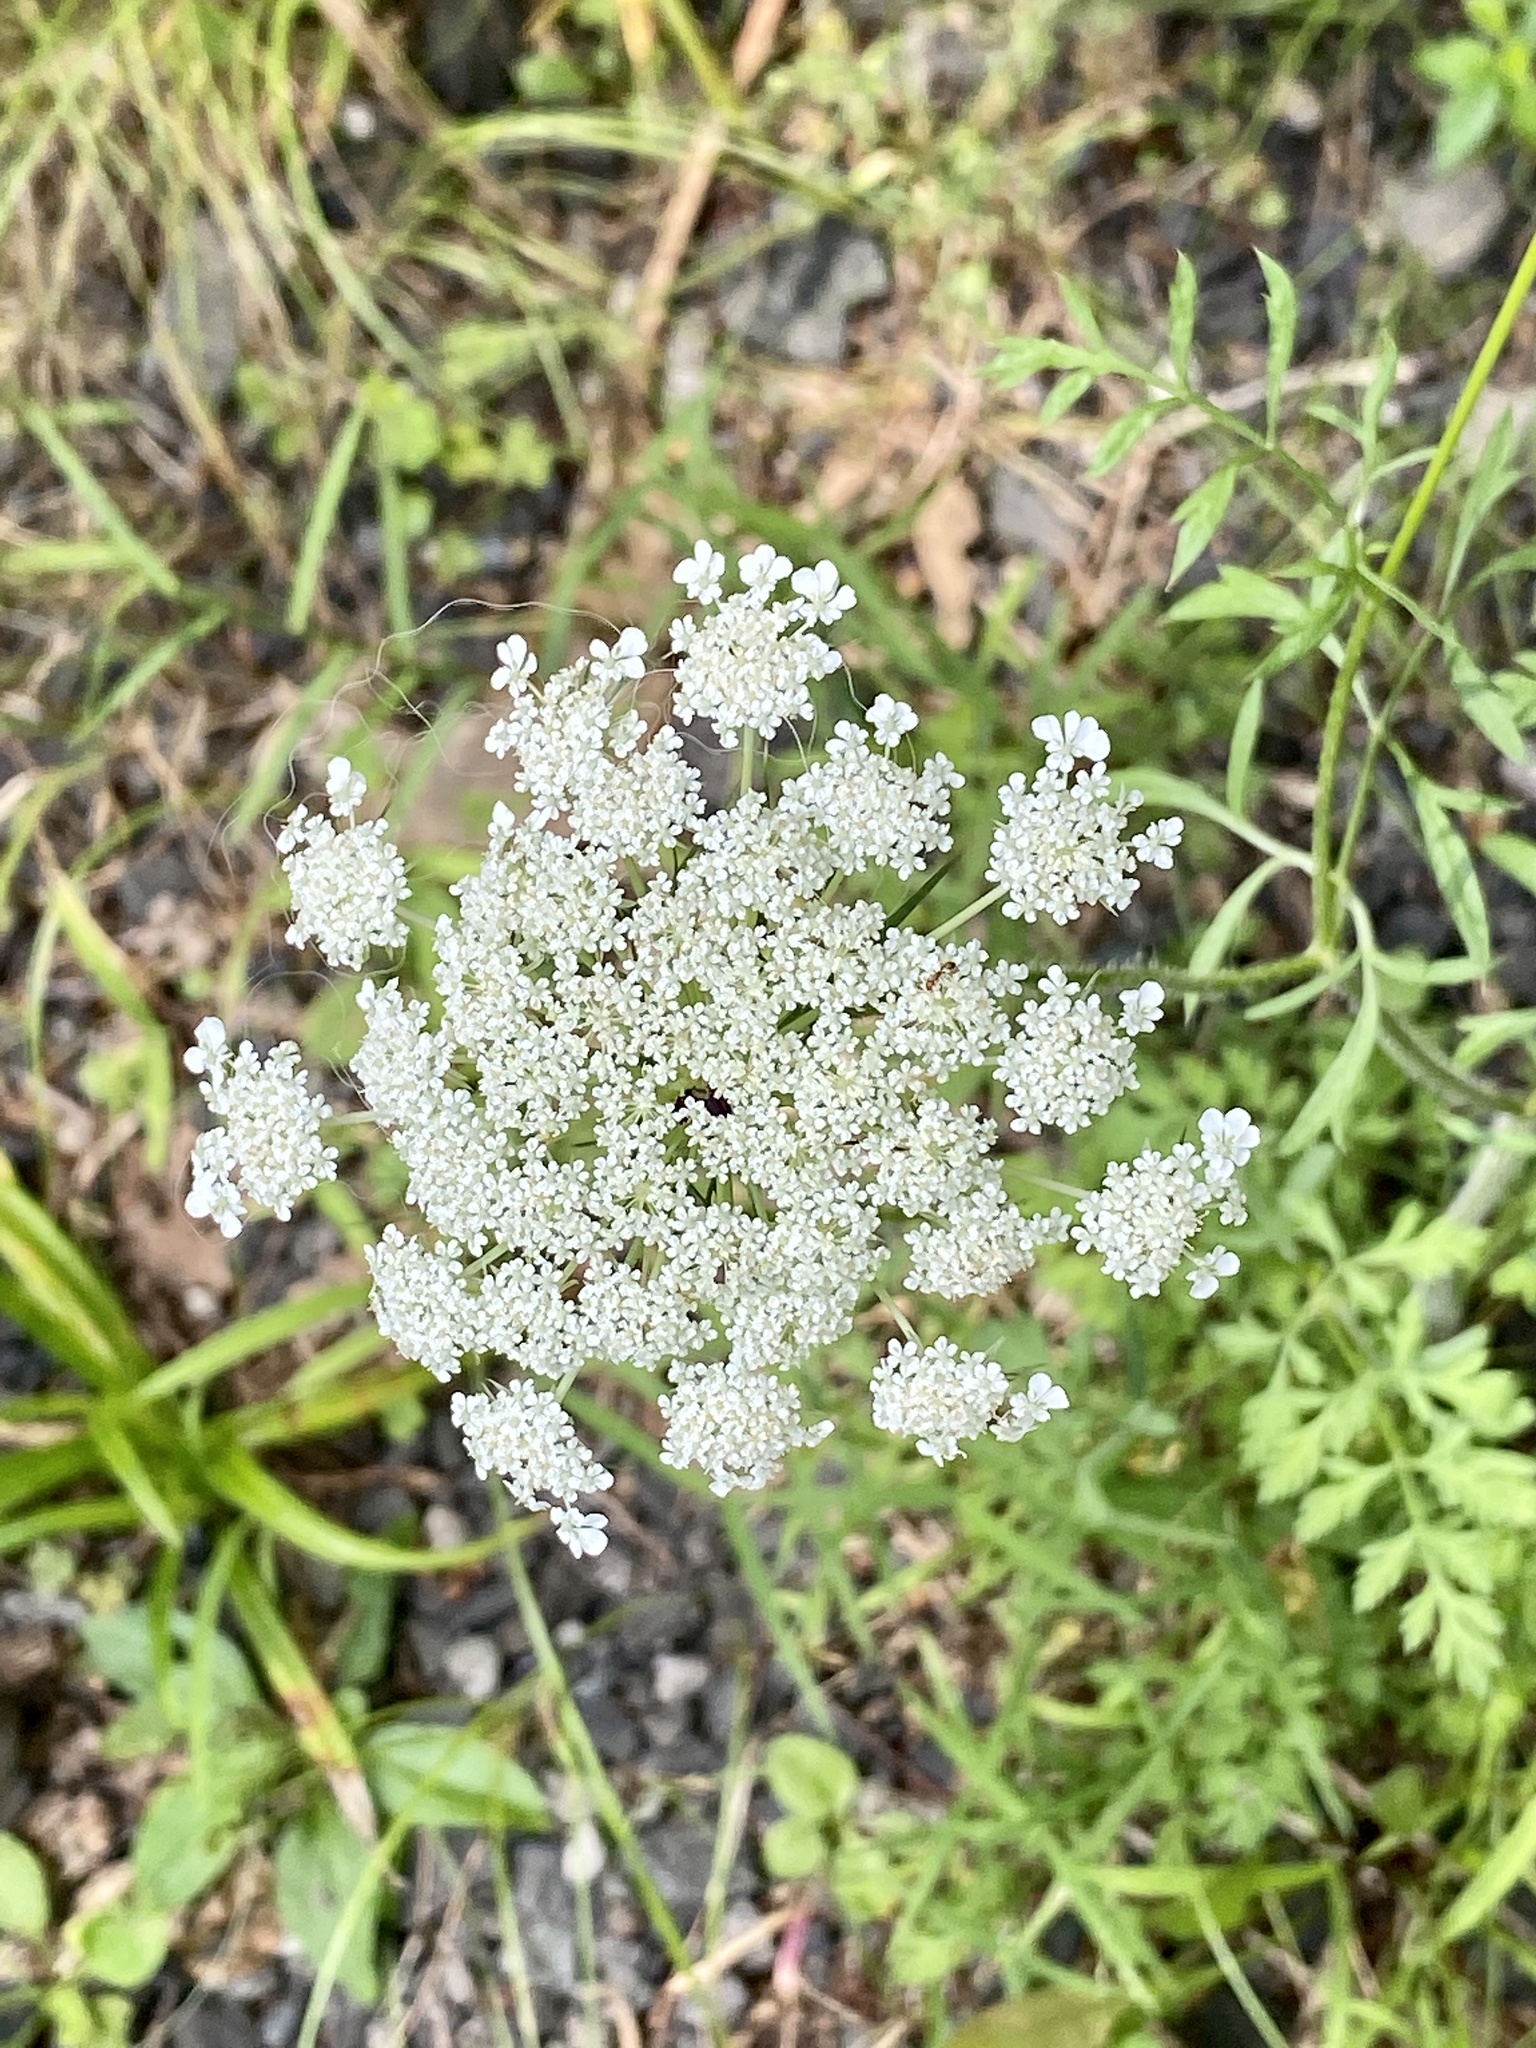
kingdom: Plantae
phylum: Tracheophyta
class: Magnoliopsida
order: Apiales
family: Apiaceae
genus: Daucus
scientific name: Daucus carota
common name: Wild carrot
